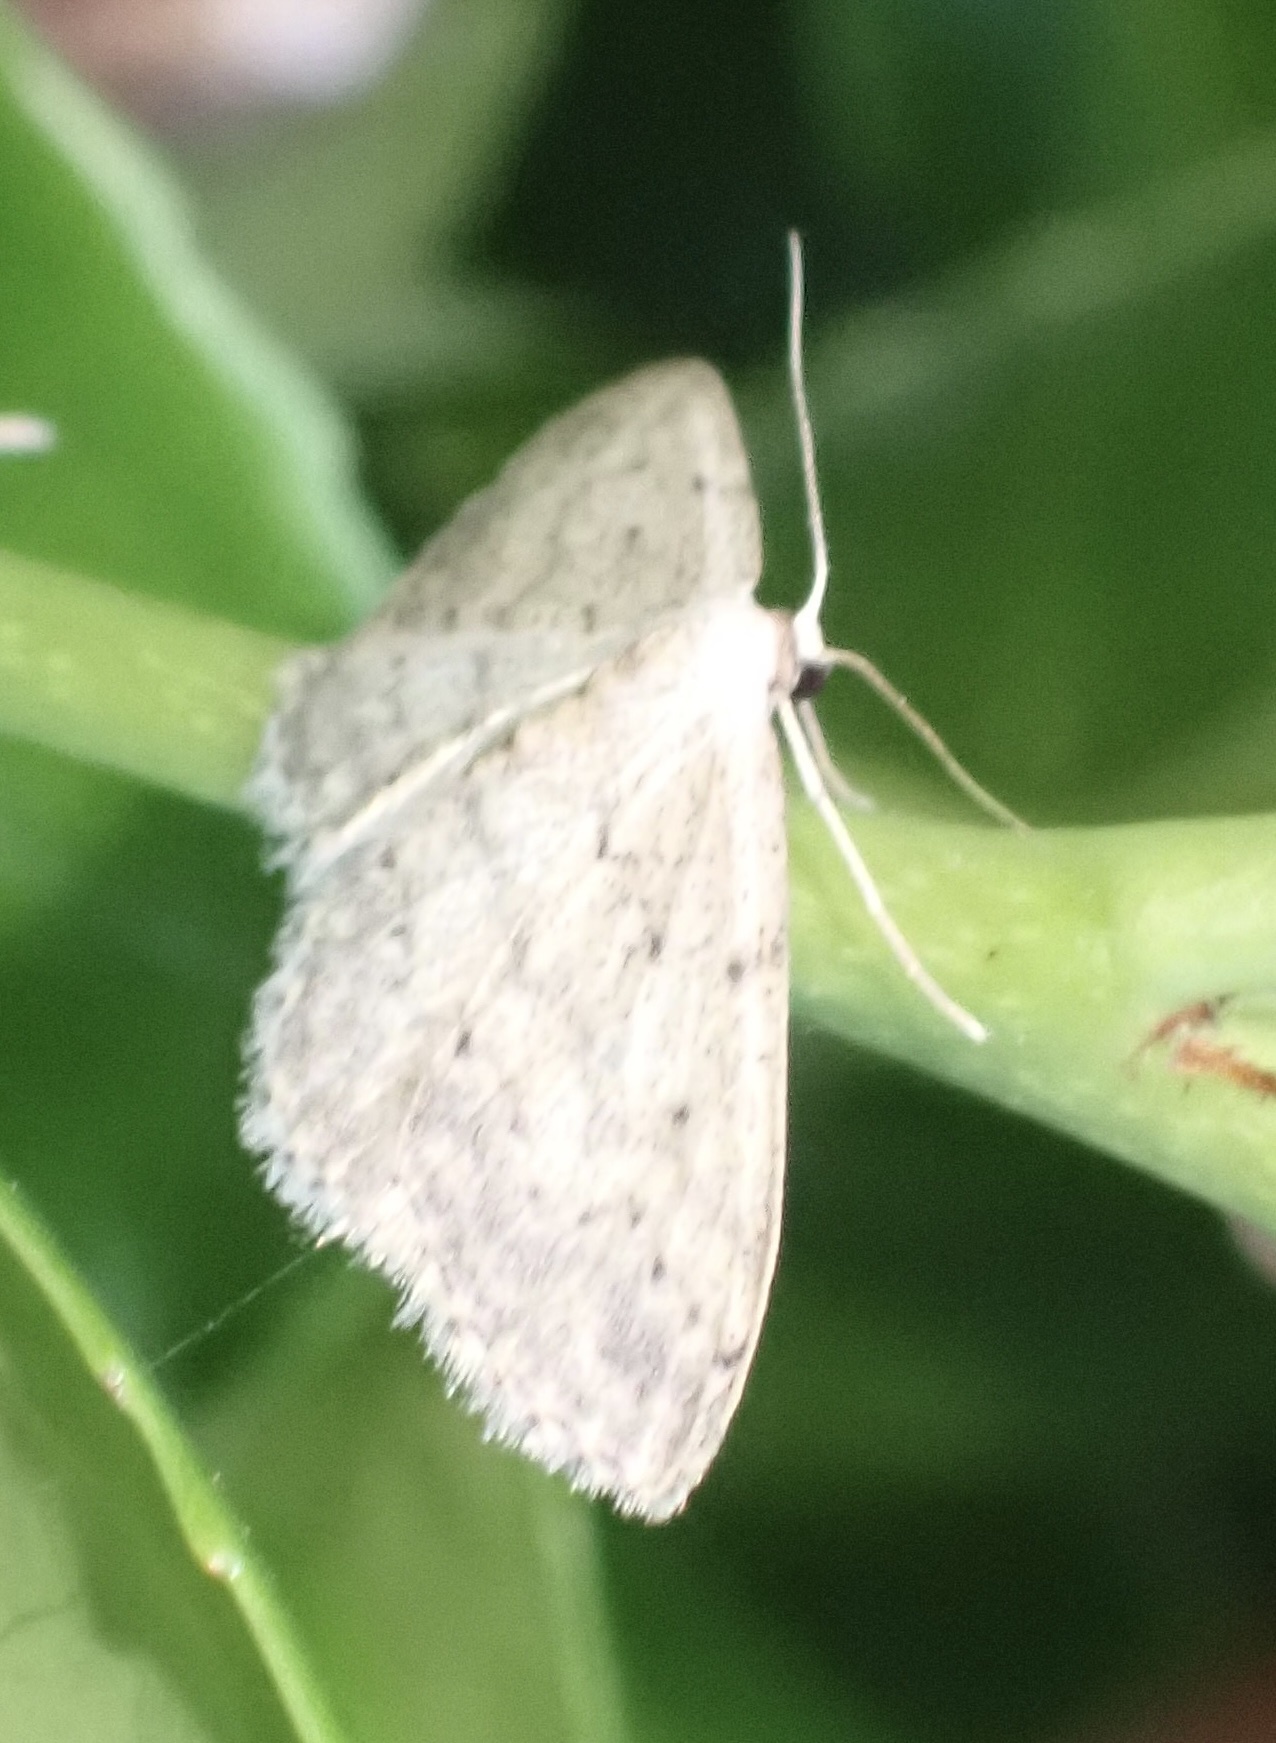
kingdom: Animalia
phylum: Arthropoda
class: Insecta
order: Lepidoptera
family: Geometridae
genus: Idaea
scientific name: Idaea seriata
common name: Small dusty wave
